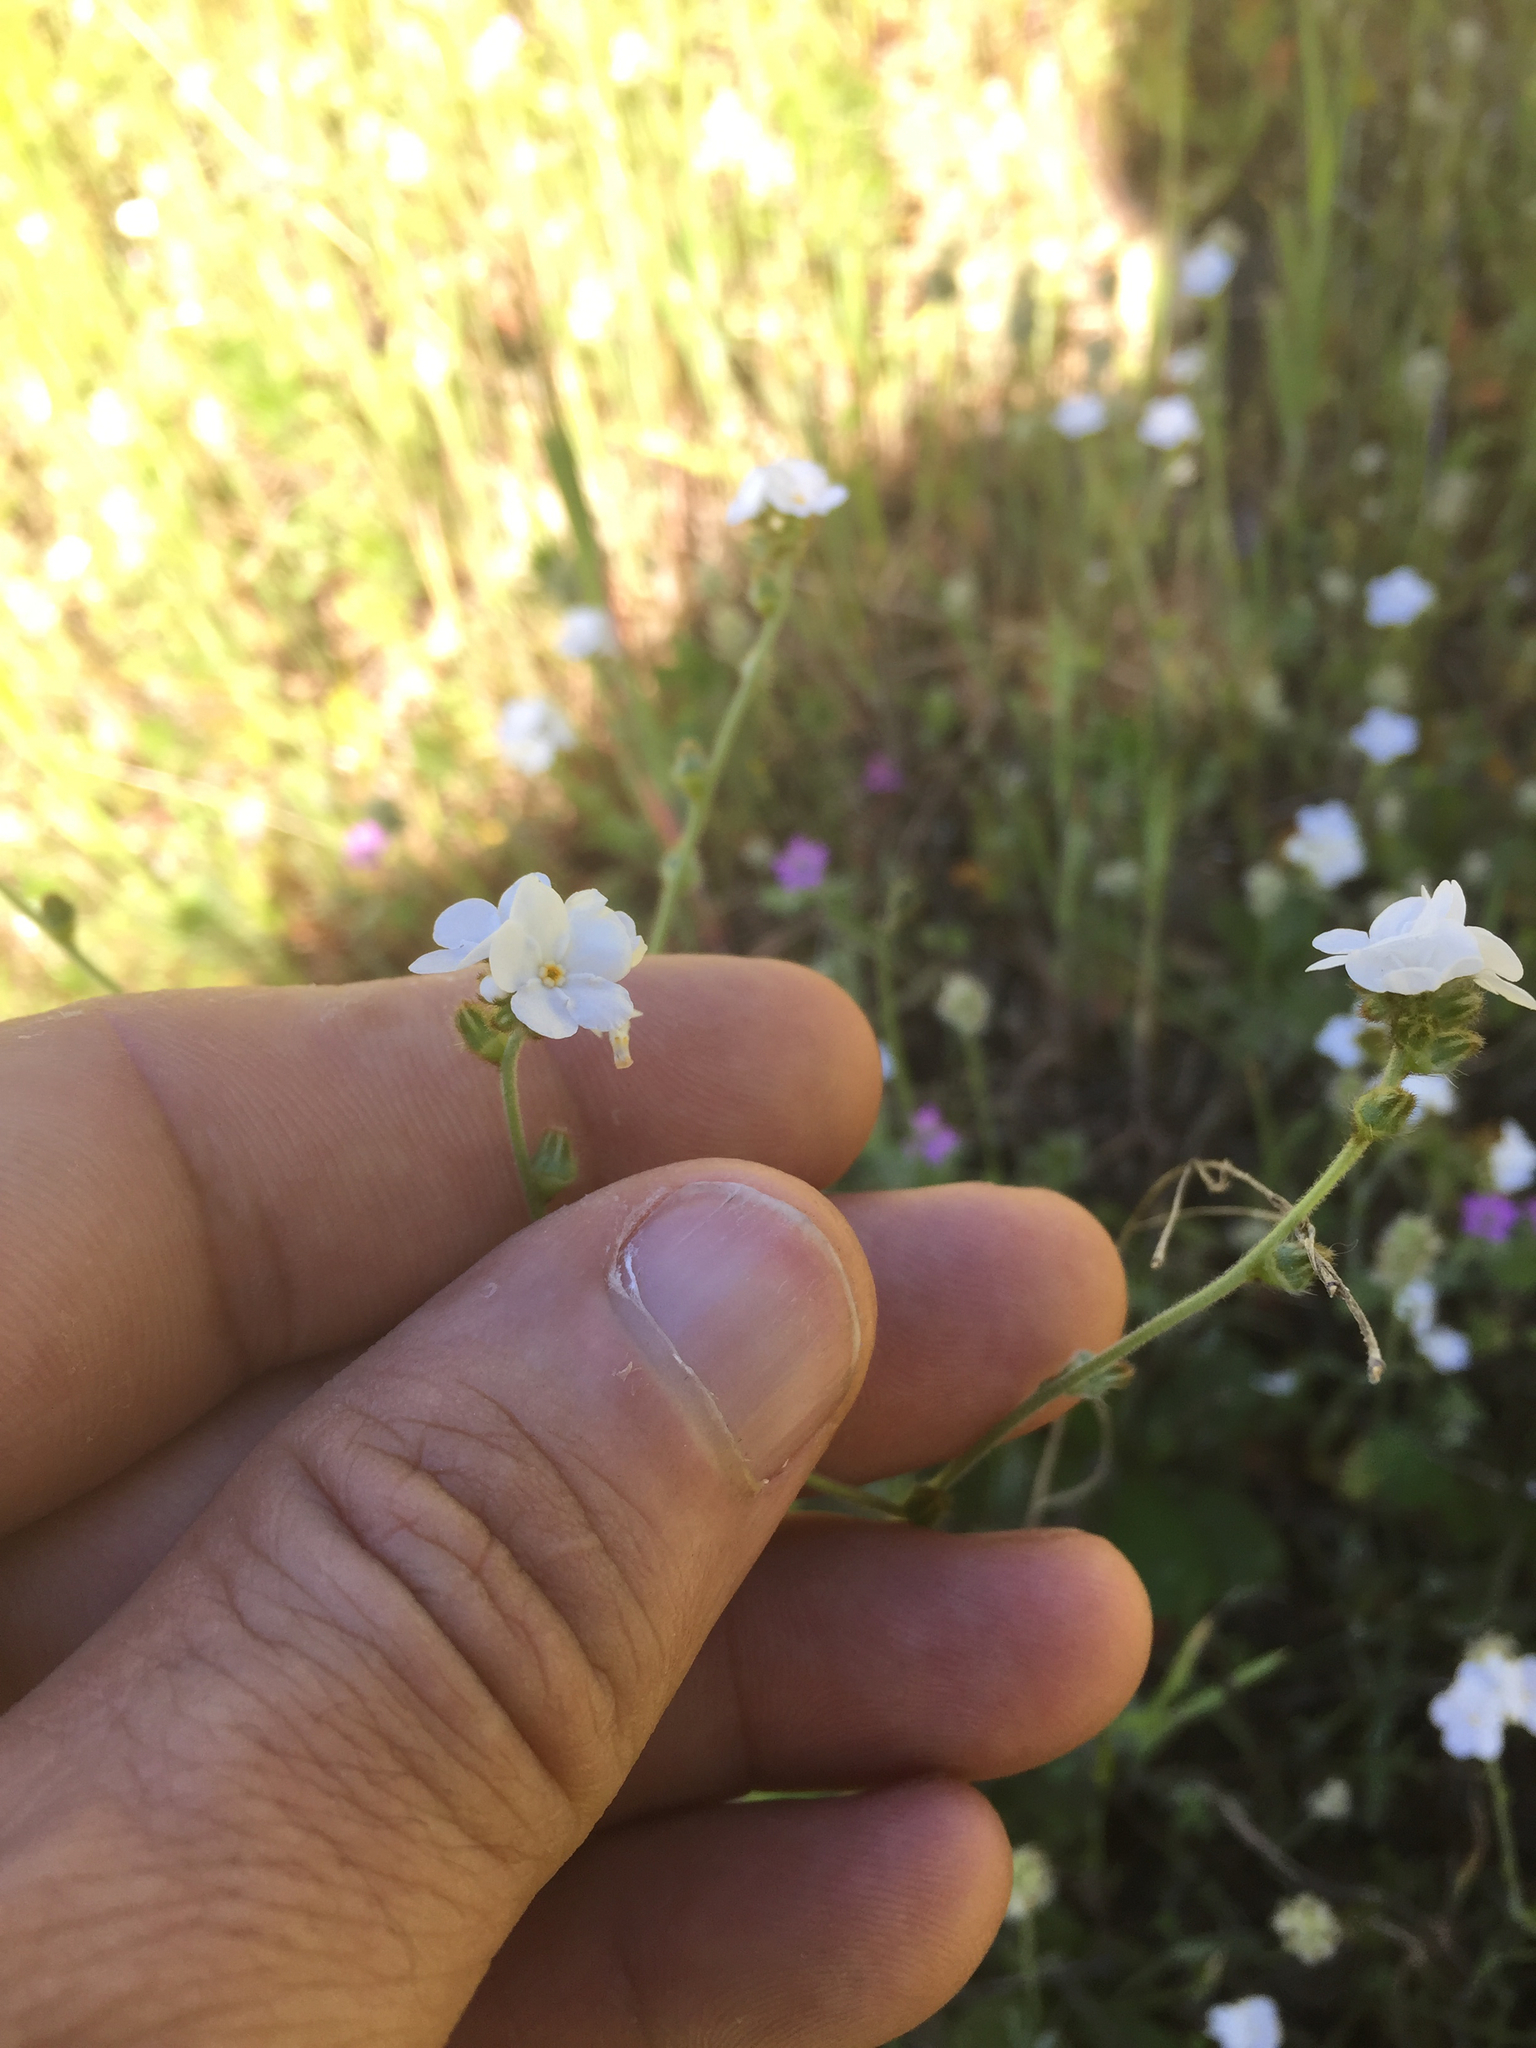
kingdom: Plantae
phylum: Tracheophyta
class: Magnoliopsida
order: Boraginales
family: Boraginaceae
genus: Plagiobothrys
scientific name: Plagiobothrys nothofulvus
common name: Popcorn-flower
